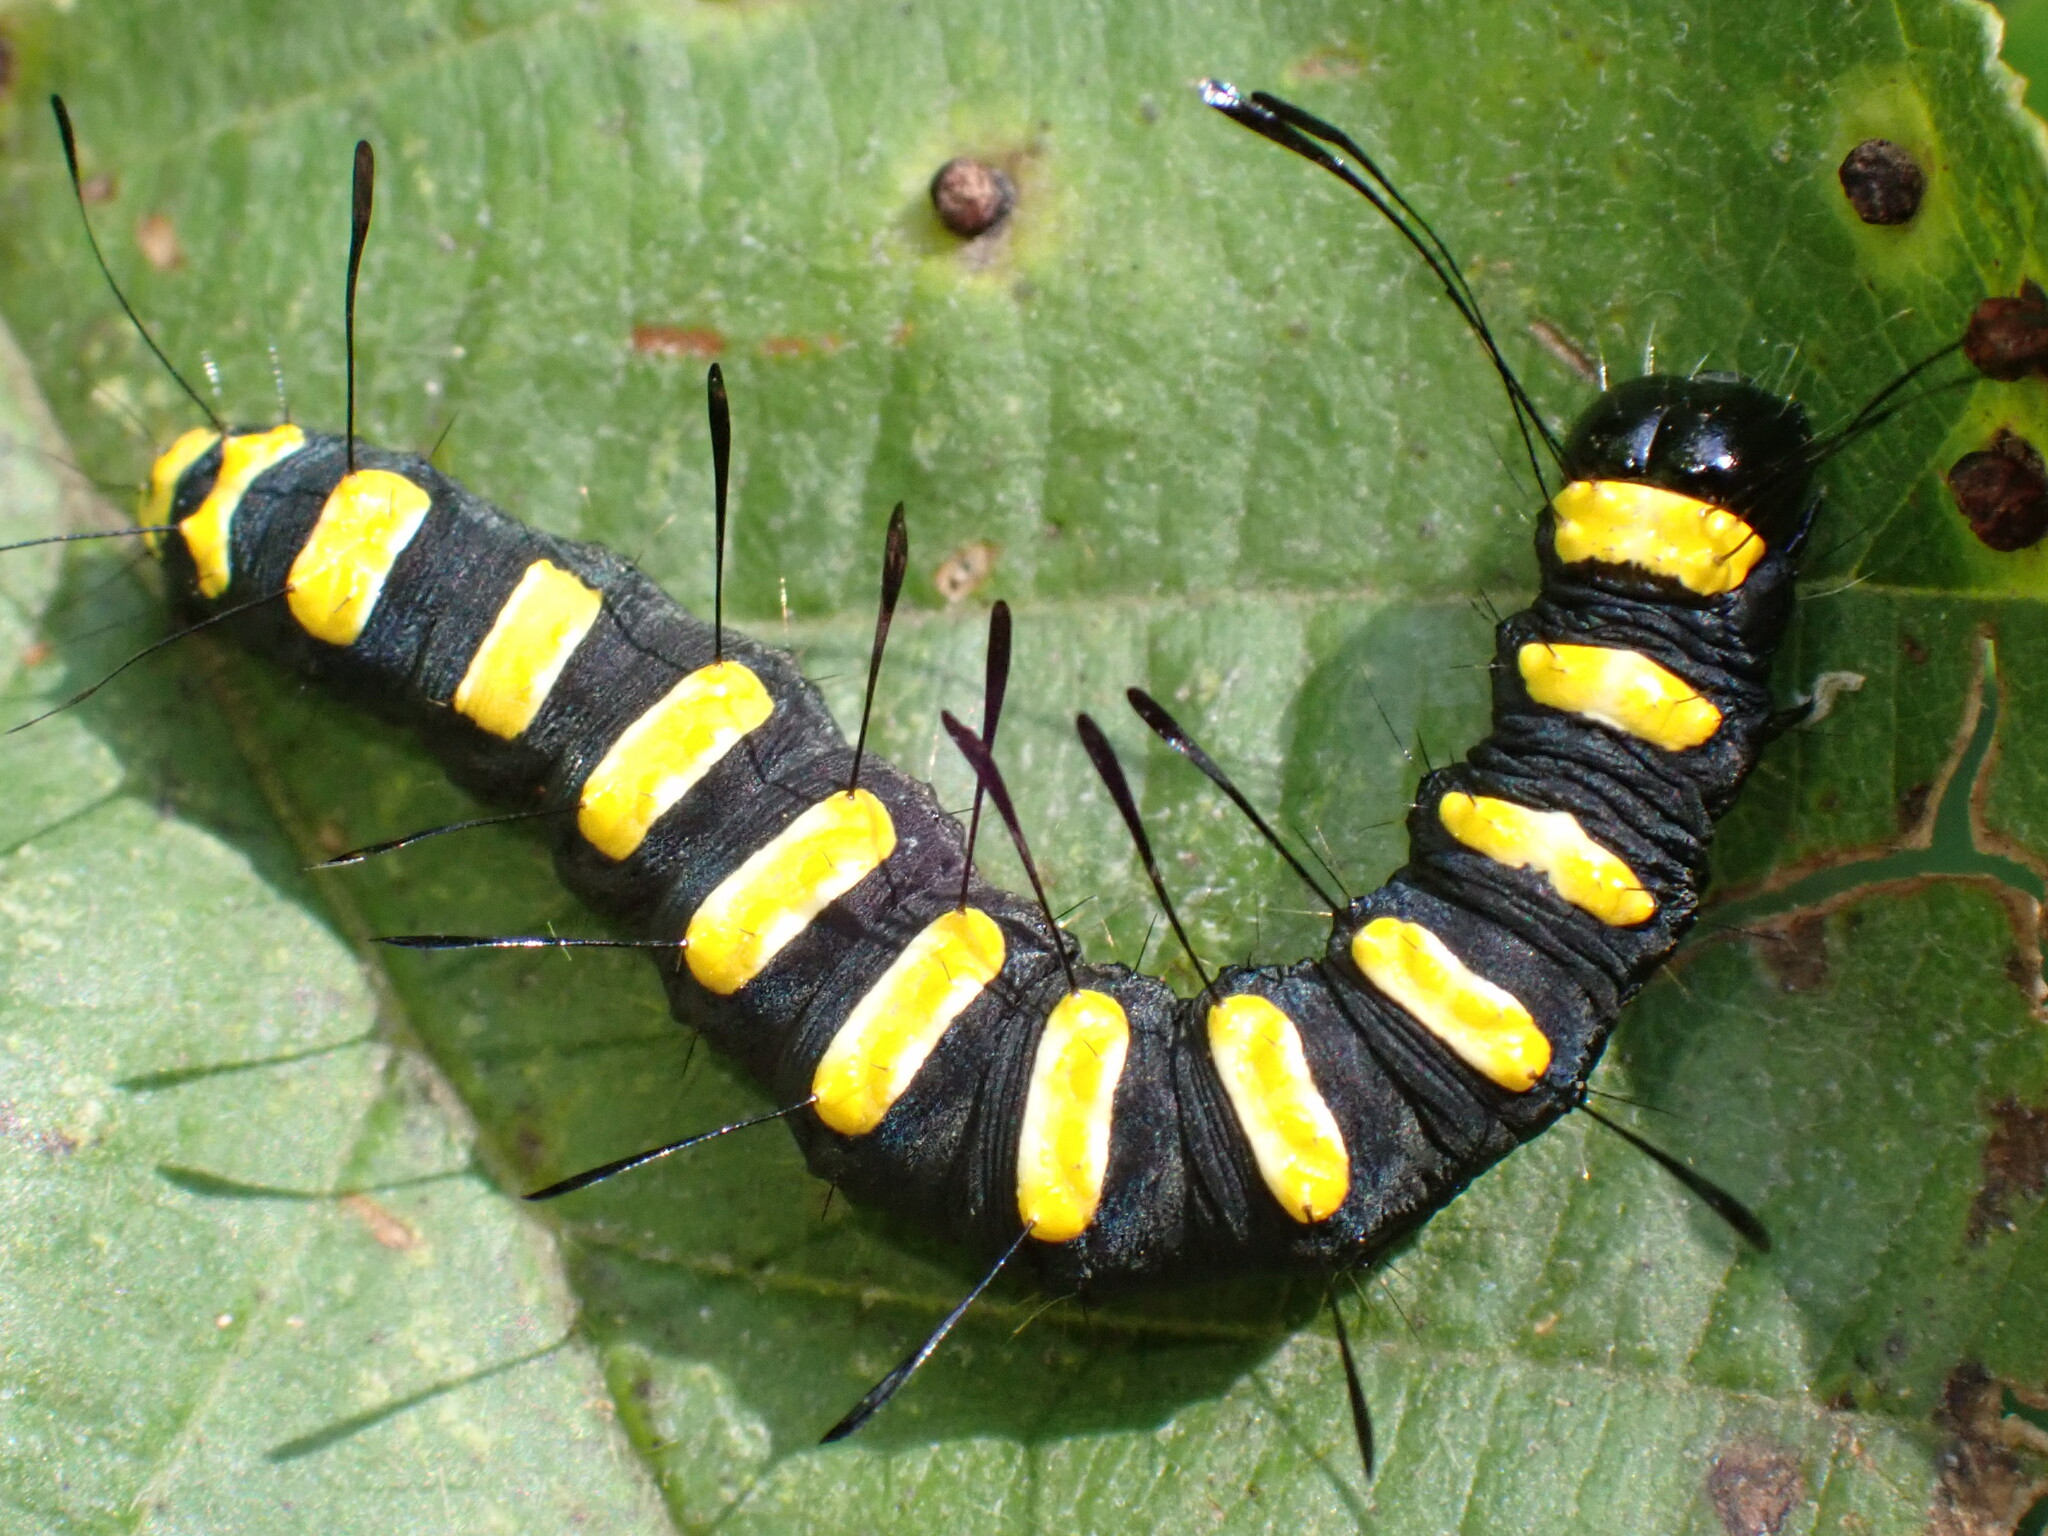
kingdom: Animalia
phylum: Arthropoda
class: Insecta
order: Lepidoptera
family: Noctuidae
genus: Acronicta
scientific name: Acronicta alni
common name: Alder moth
